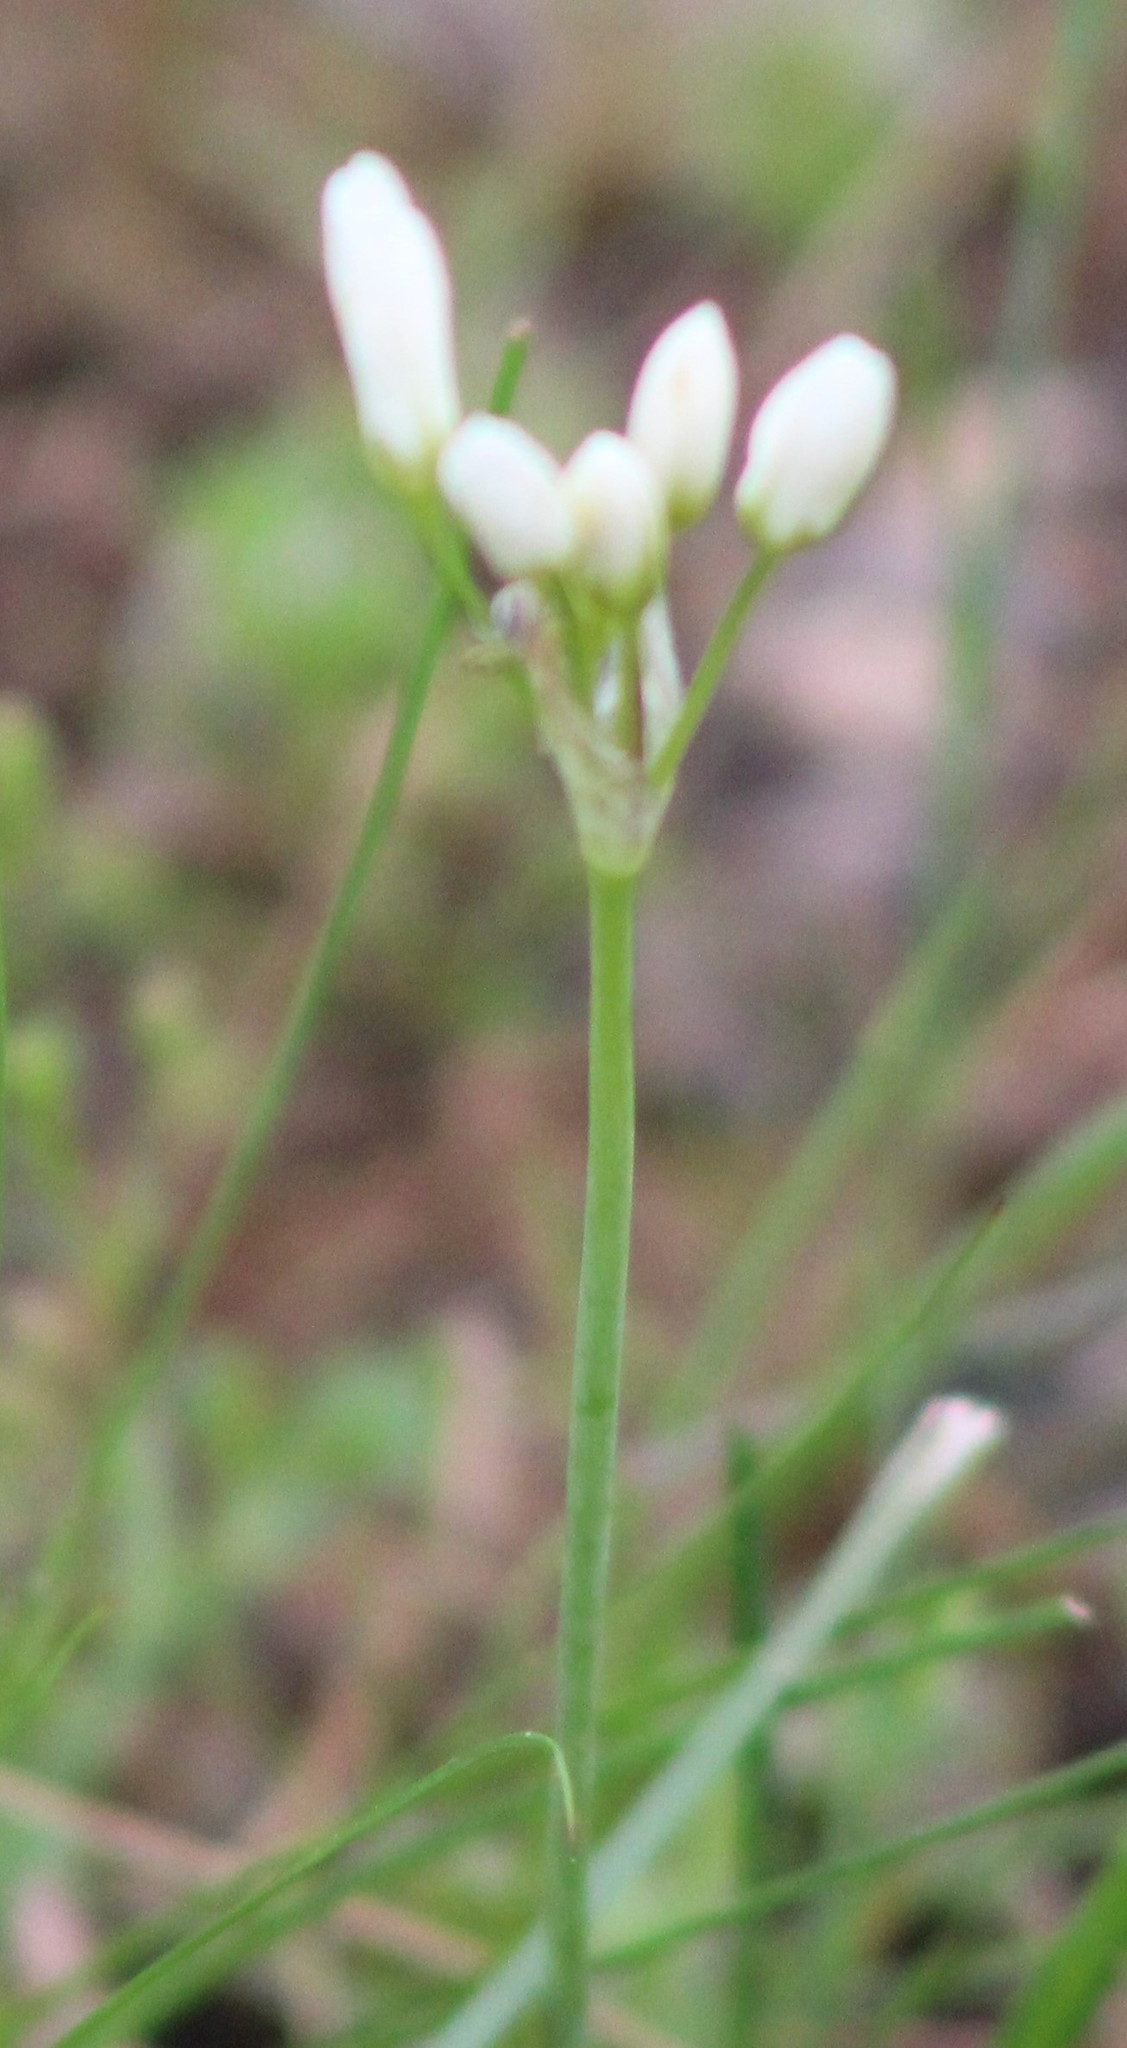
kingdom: Plantae
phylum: Tracheophyta
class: Liliopsida
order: Asparagales
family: Amaryllidaceae
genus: Nothoscordum
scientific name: Nothoscordum bivalve
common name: Crow-poison
